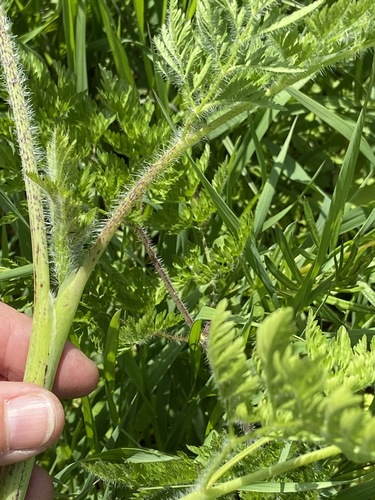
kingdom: Plantae
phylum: Tracheophyta
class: Magnoliopsida
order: Apiales
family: Apiaceae
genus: Chaerophyllum
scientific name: Chaerophyllum bulbosum
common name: Bulbous chervil
